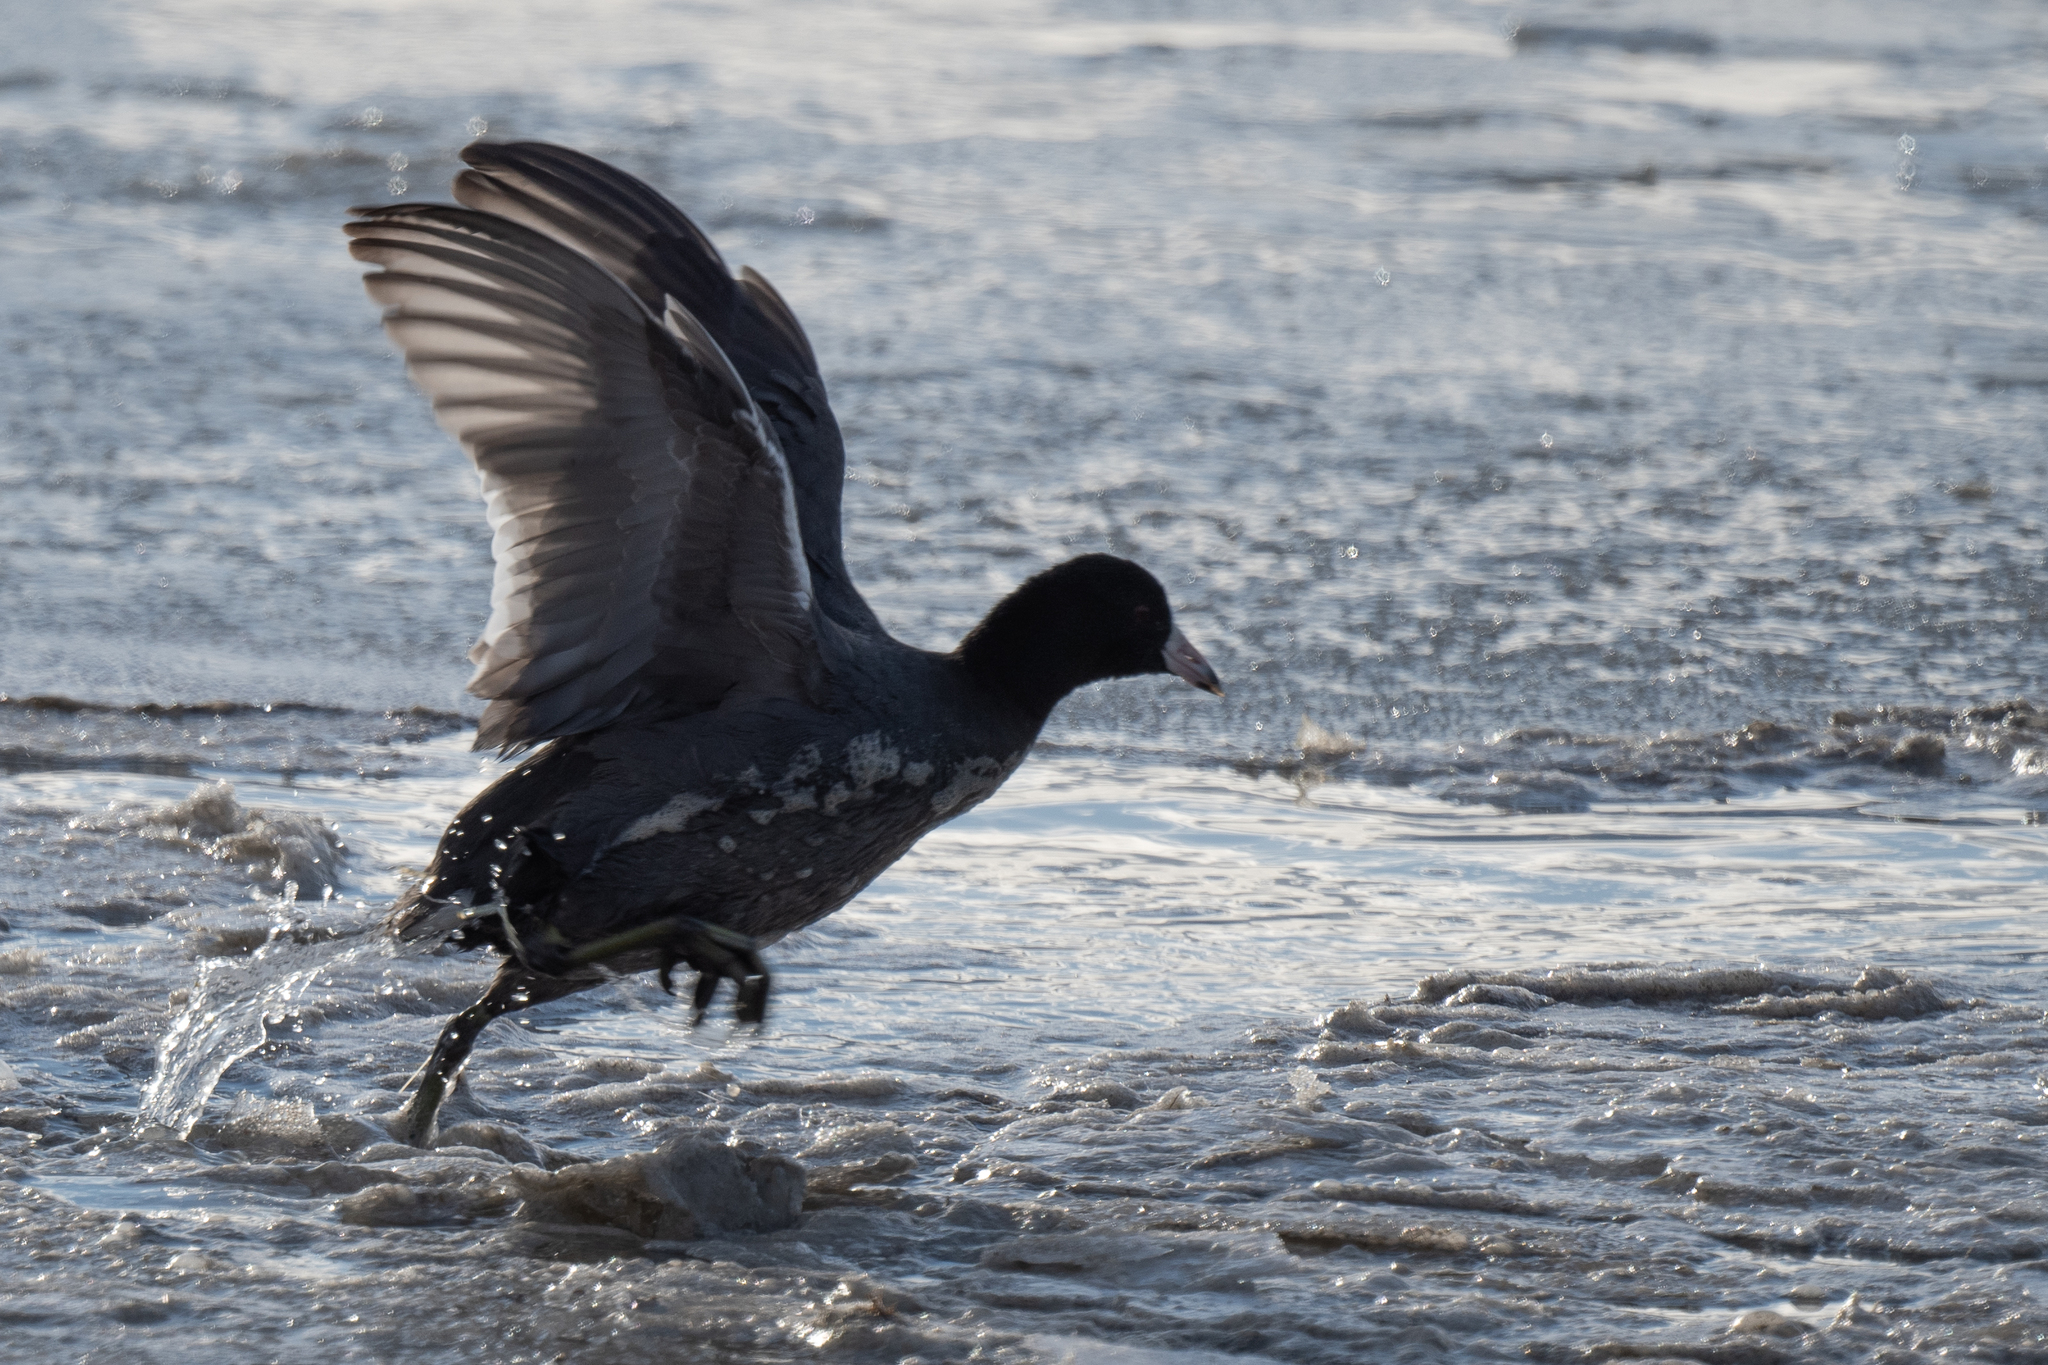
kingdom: Animalia
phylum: Chordata
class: Aves
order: Gruiformes
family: Rallidae
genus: Fulica
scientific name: Fulica americana
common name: American coot
